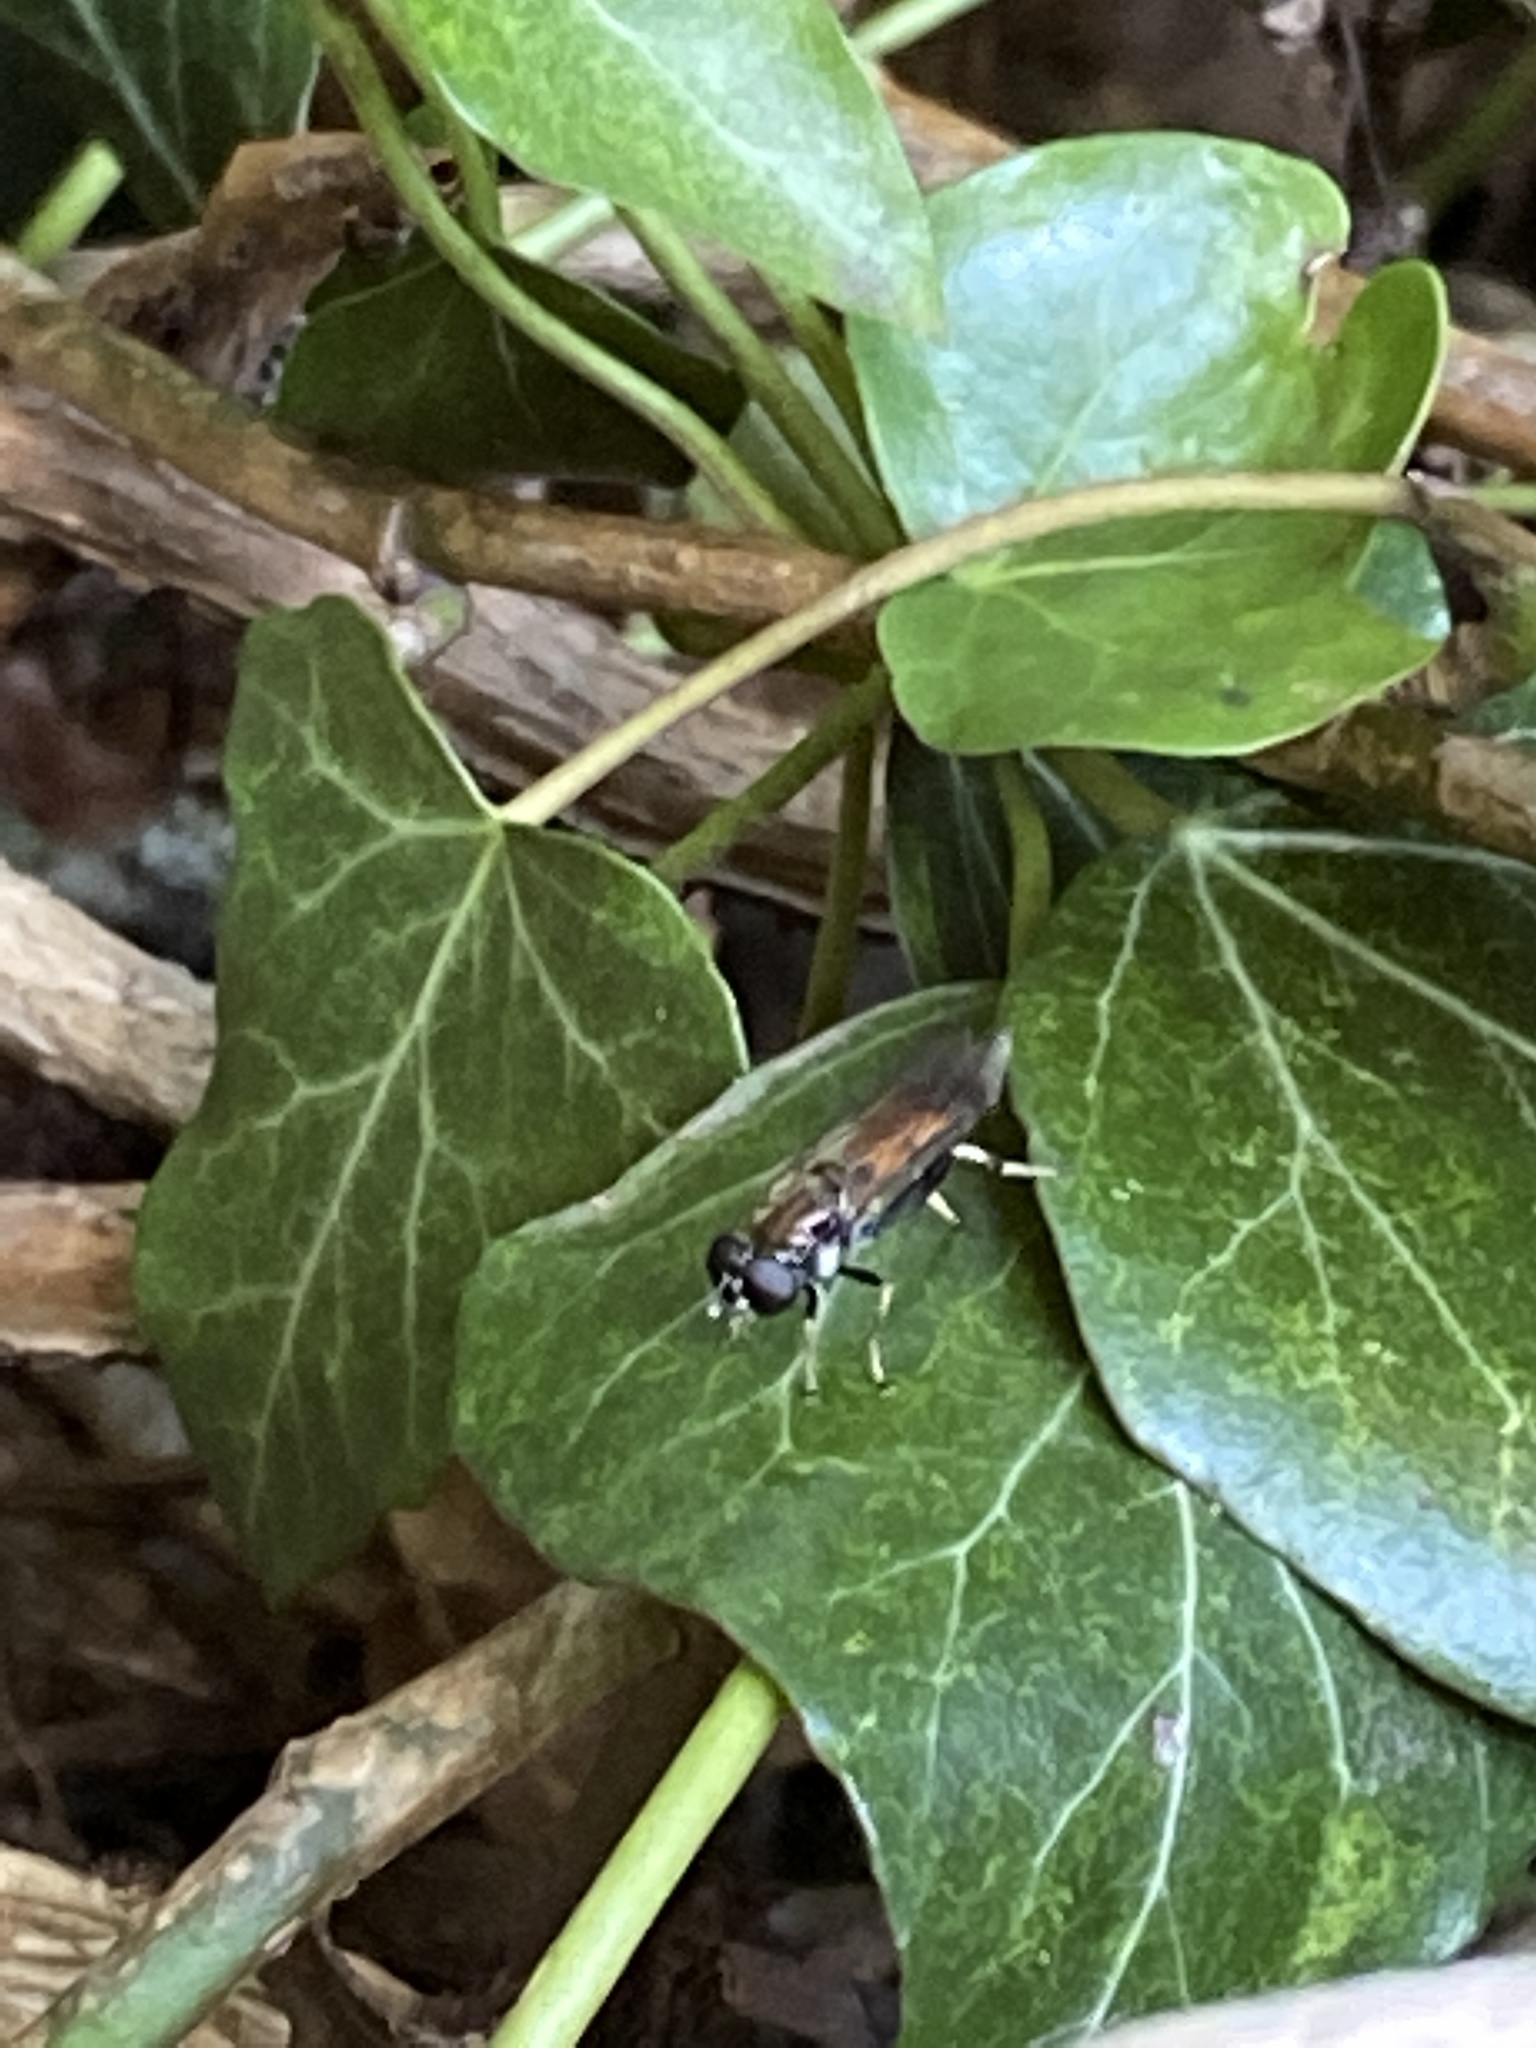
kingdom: Animalia
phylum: Arthropoda
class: Insecta
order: Diptera
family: Syrphidae
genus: Xylota
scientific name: Xylota segnis
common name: Brown-toed forest fly
